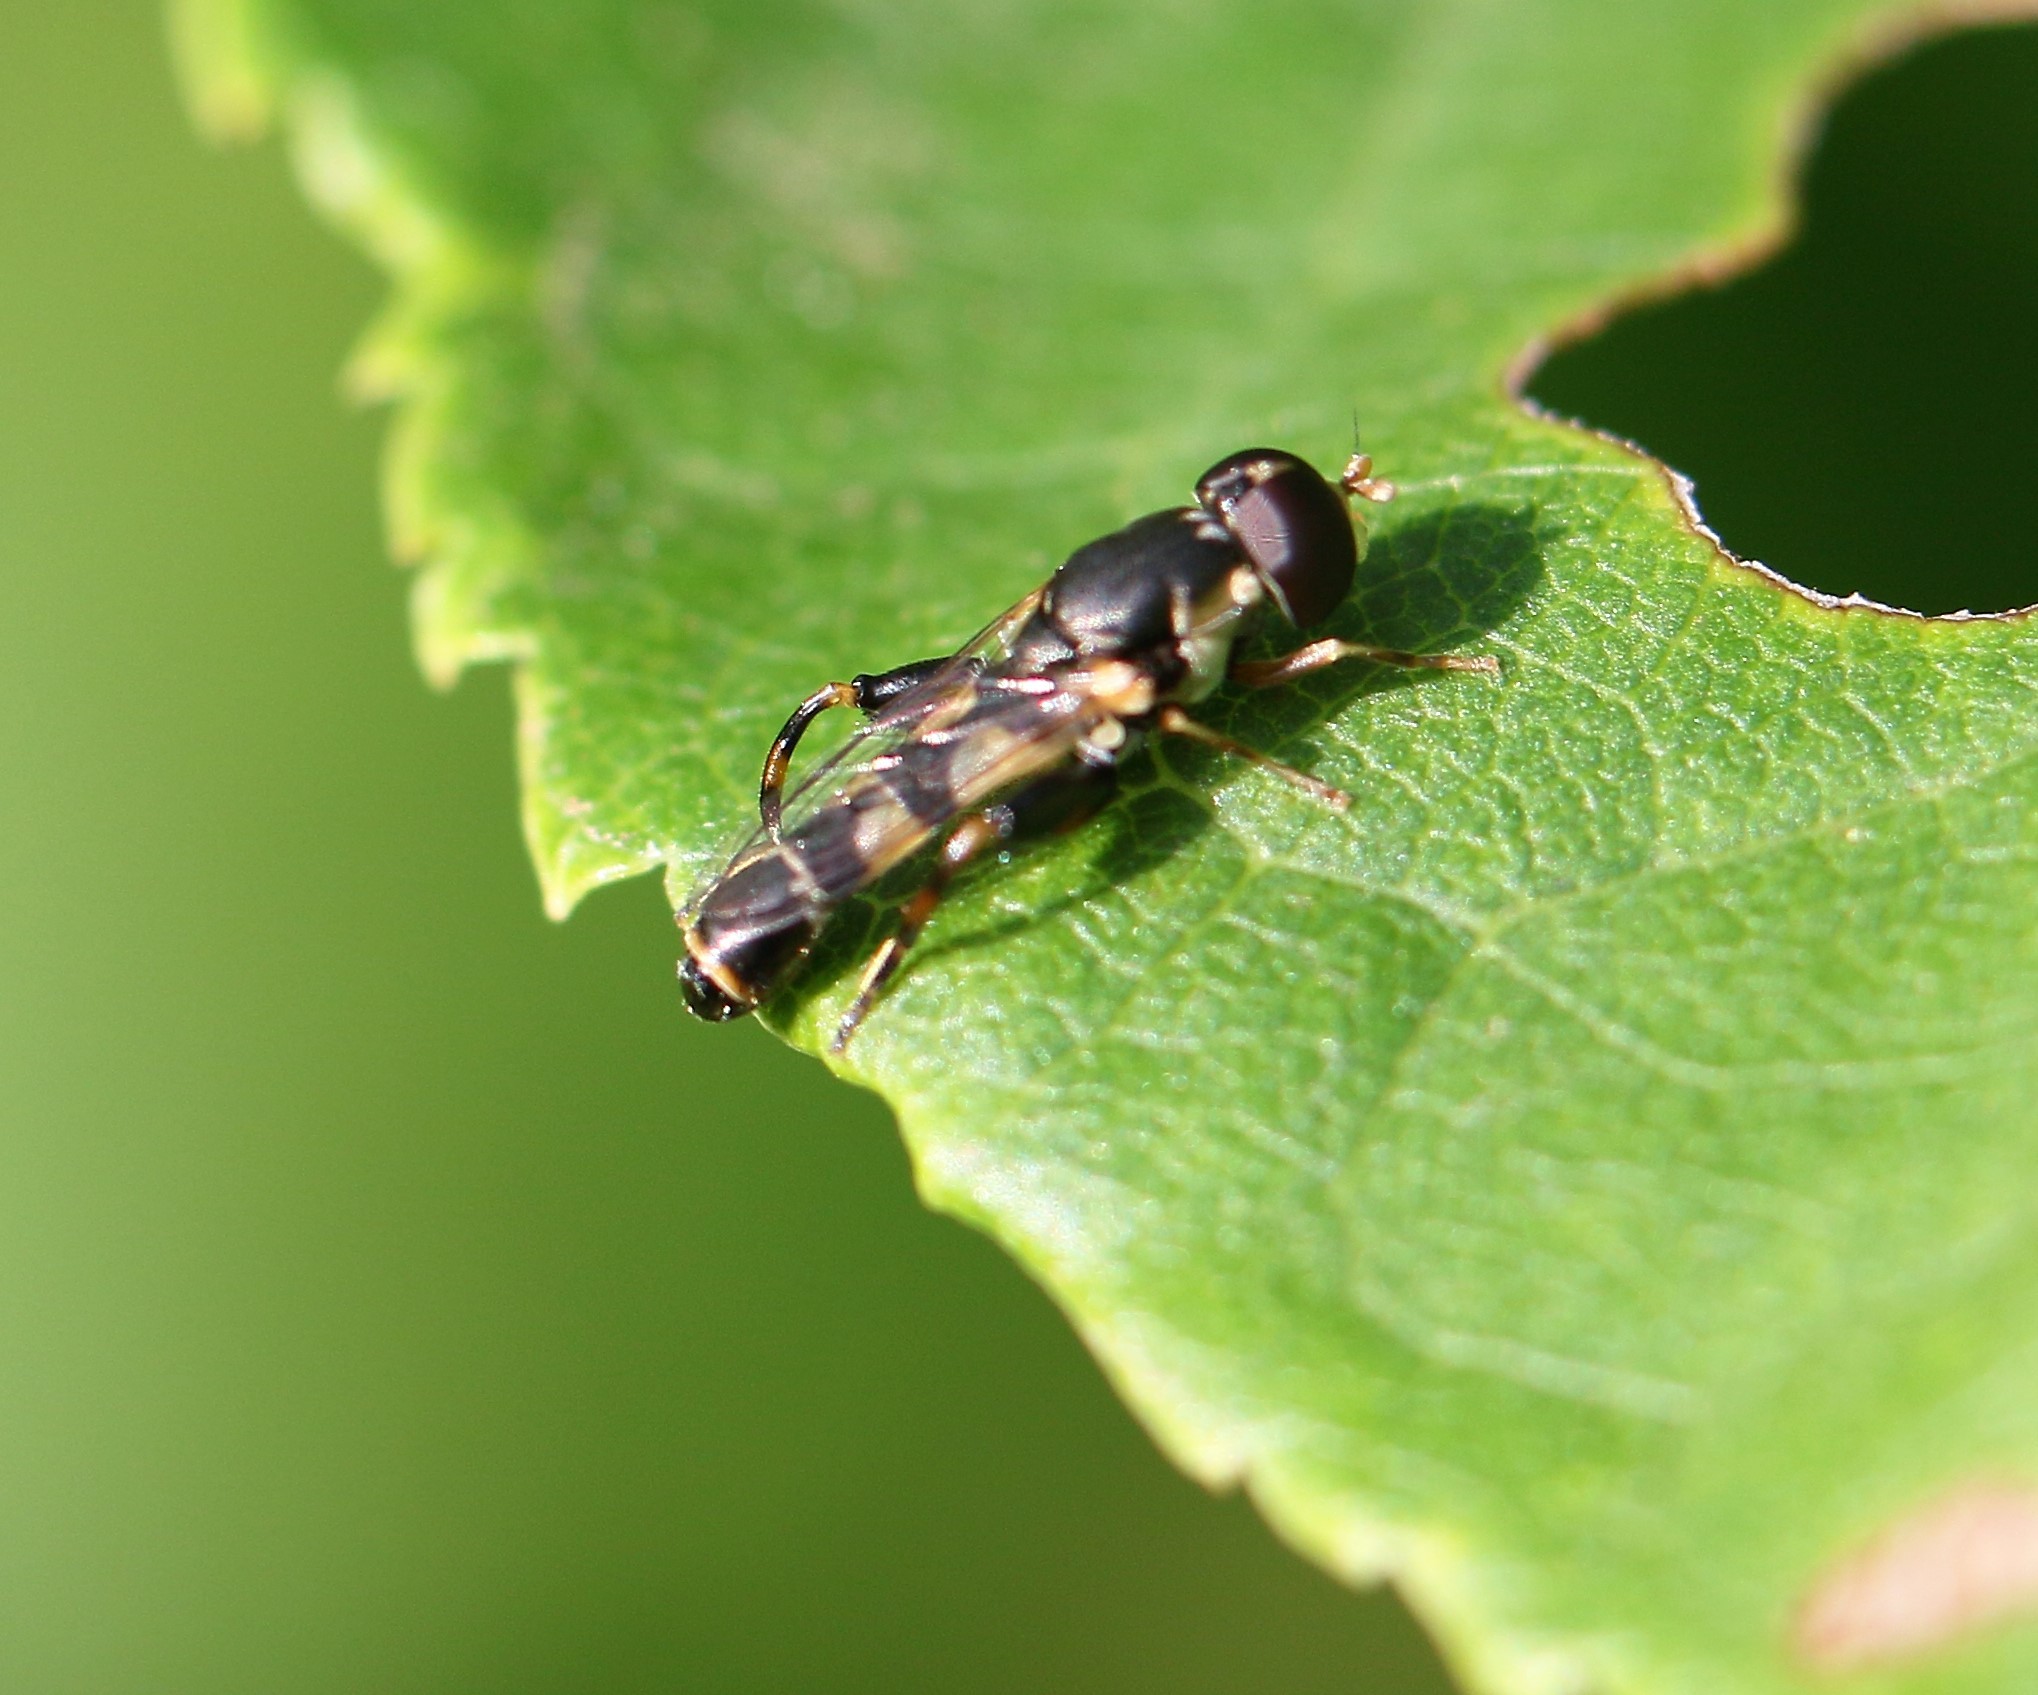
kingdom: Animalia
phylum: Arthropoda
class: Insecta
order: Diptera
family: Syrphidae
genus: Syritta
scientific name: Syritta pipiens
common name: Hover fly
